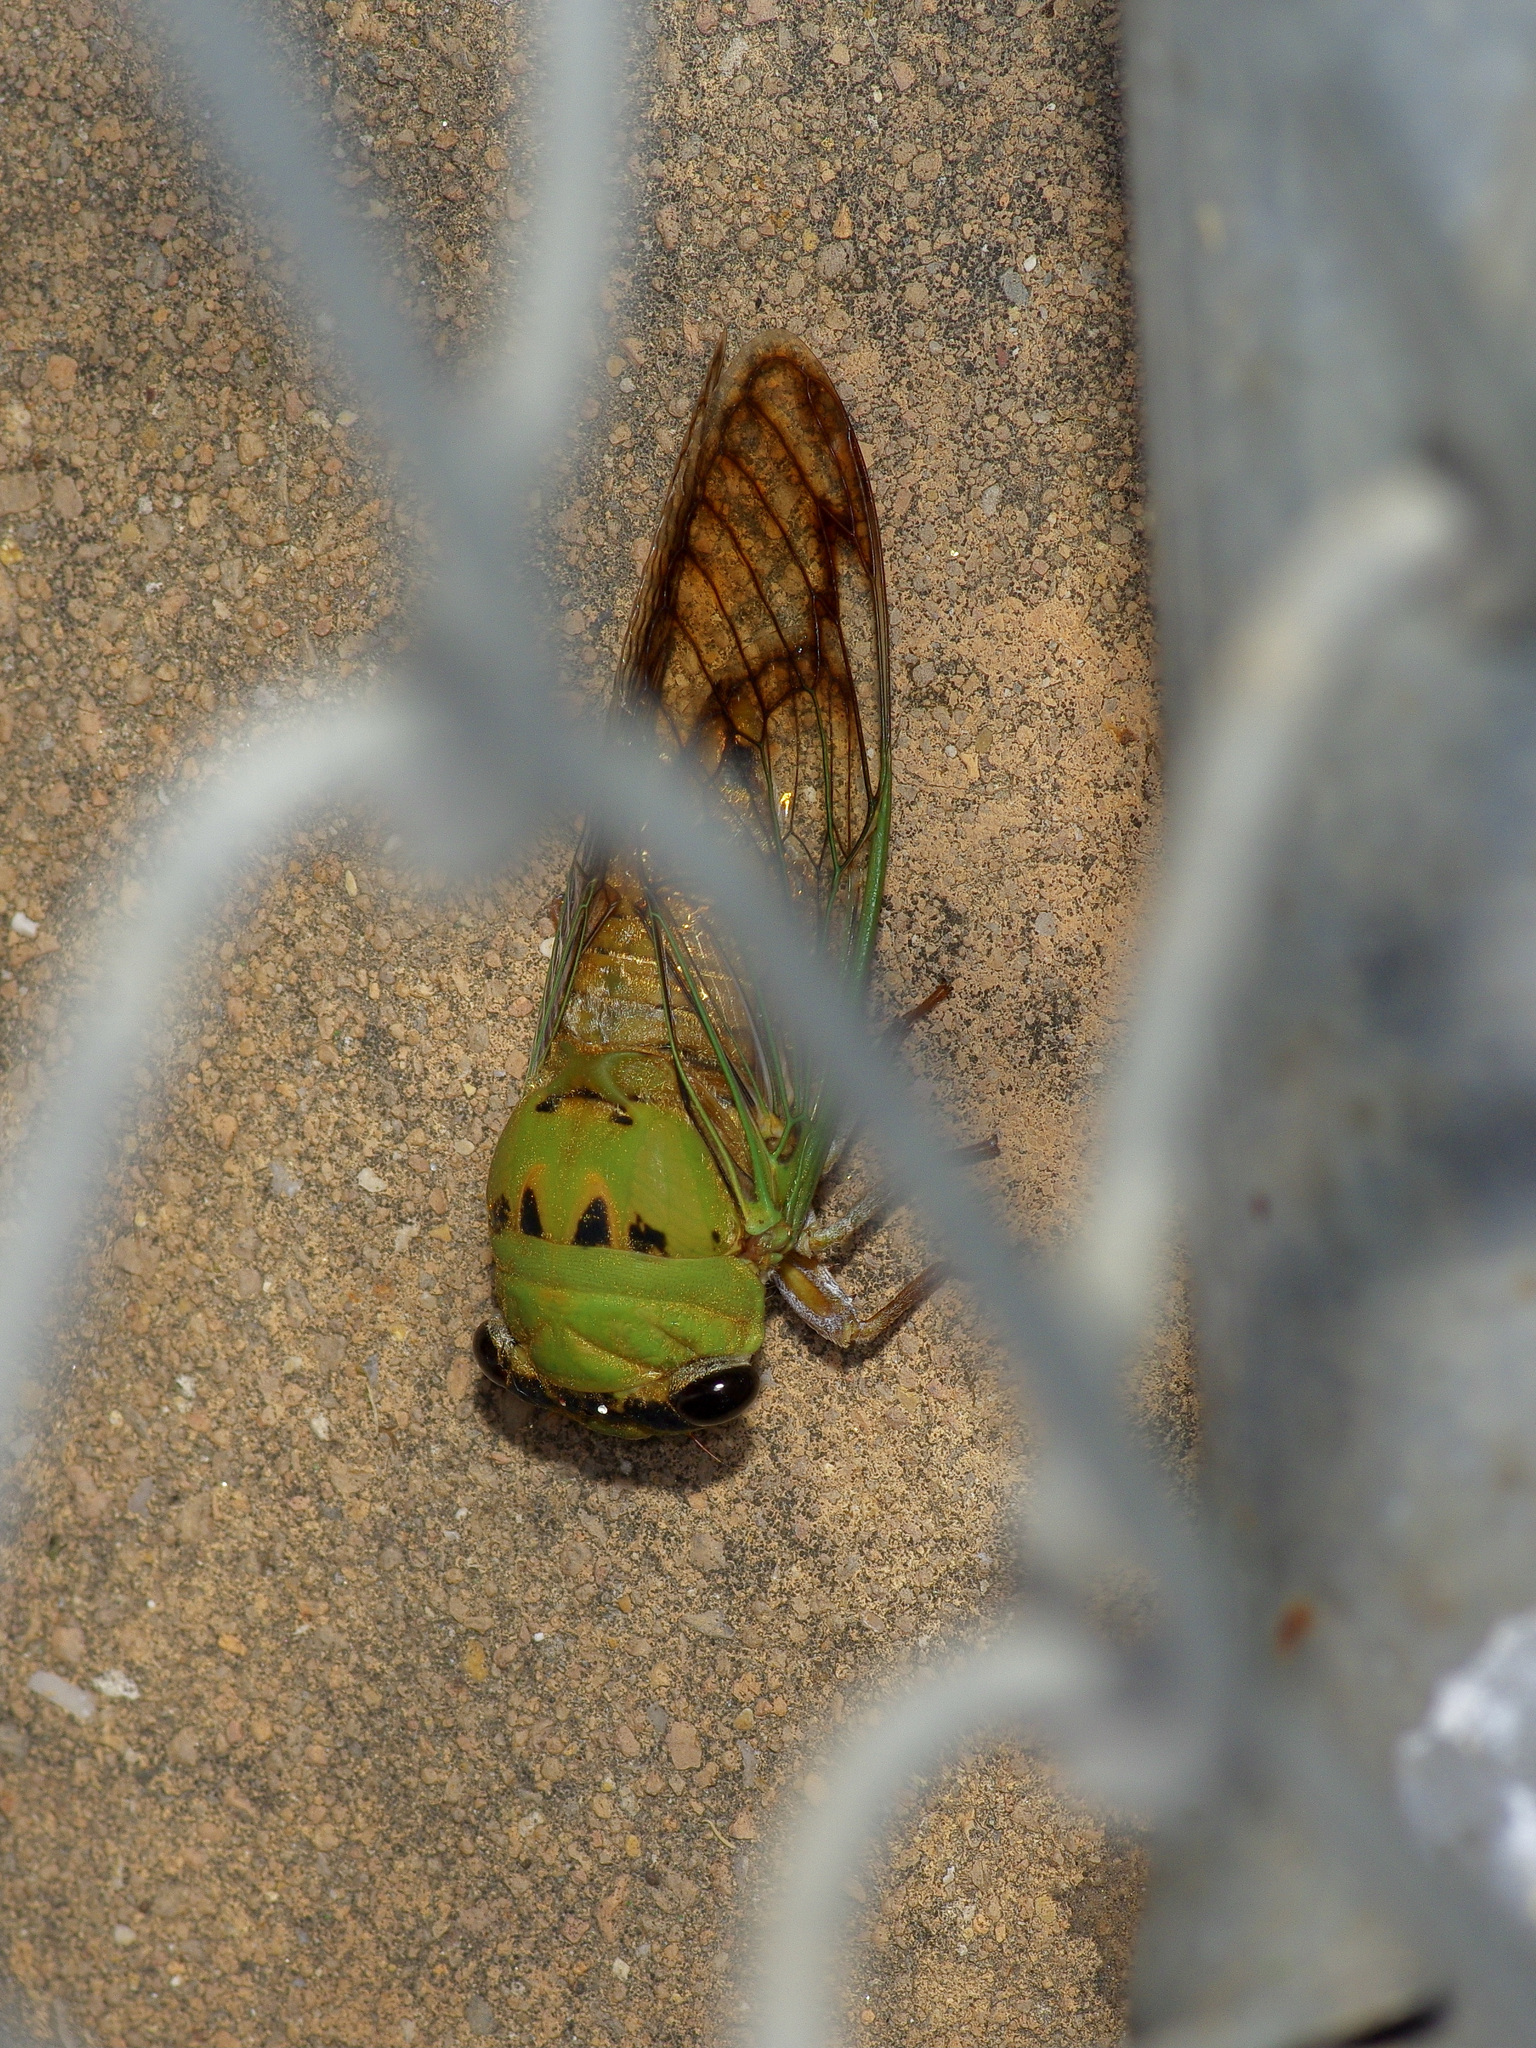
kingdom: Animalia
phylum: Arthropoda
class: Insecta
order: Hemiptera
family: Cicadidae
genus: Neotibicen
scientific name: Neotibicen superbus
